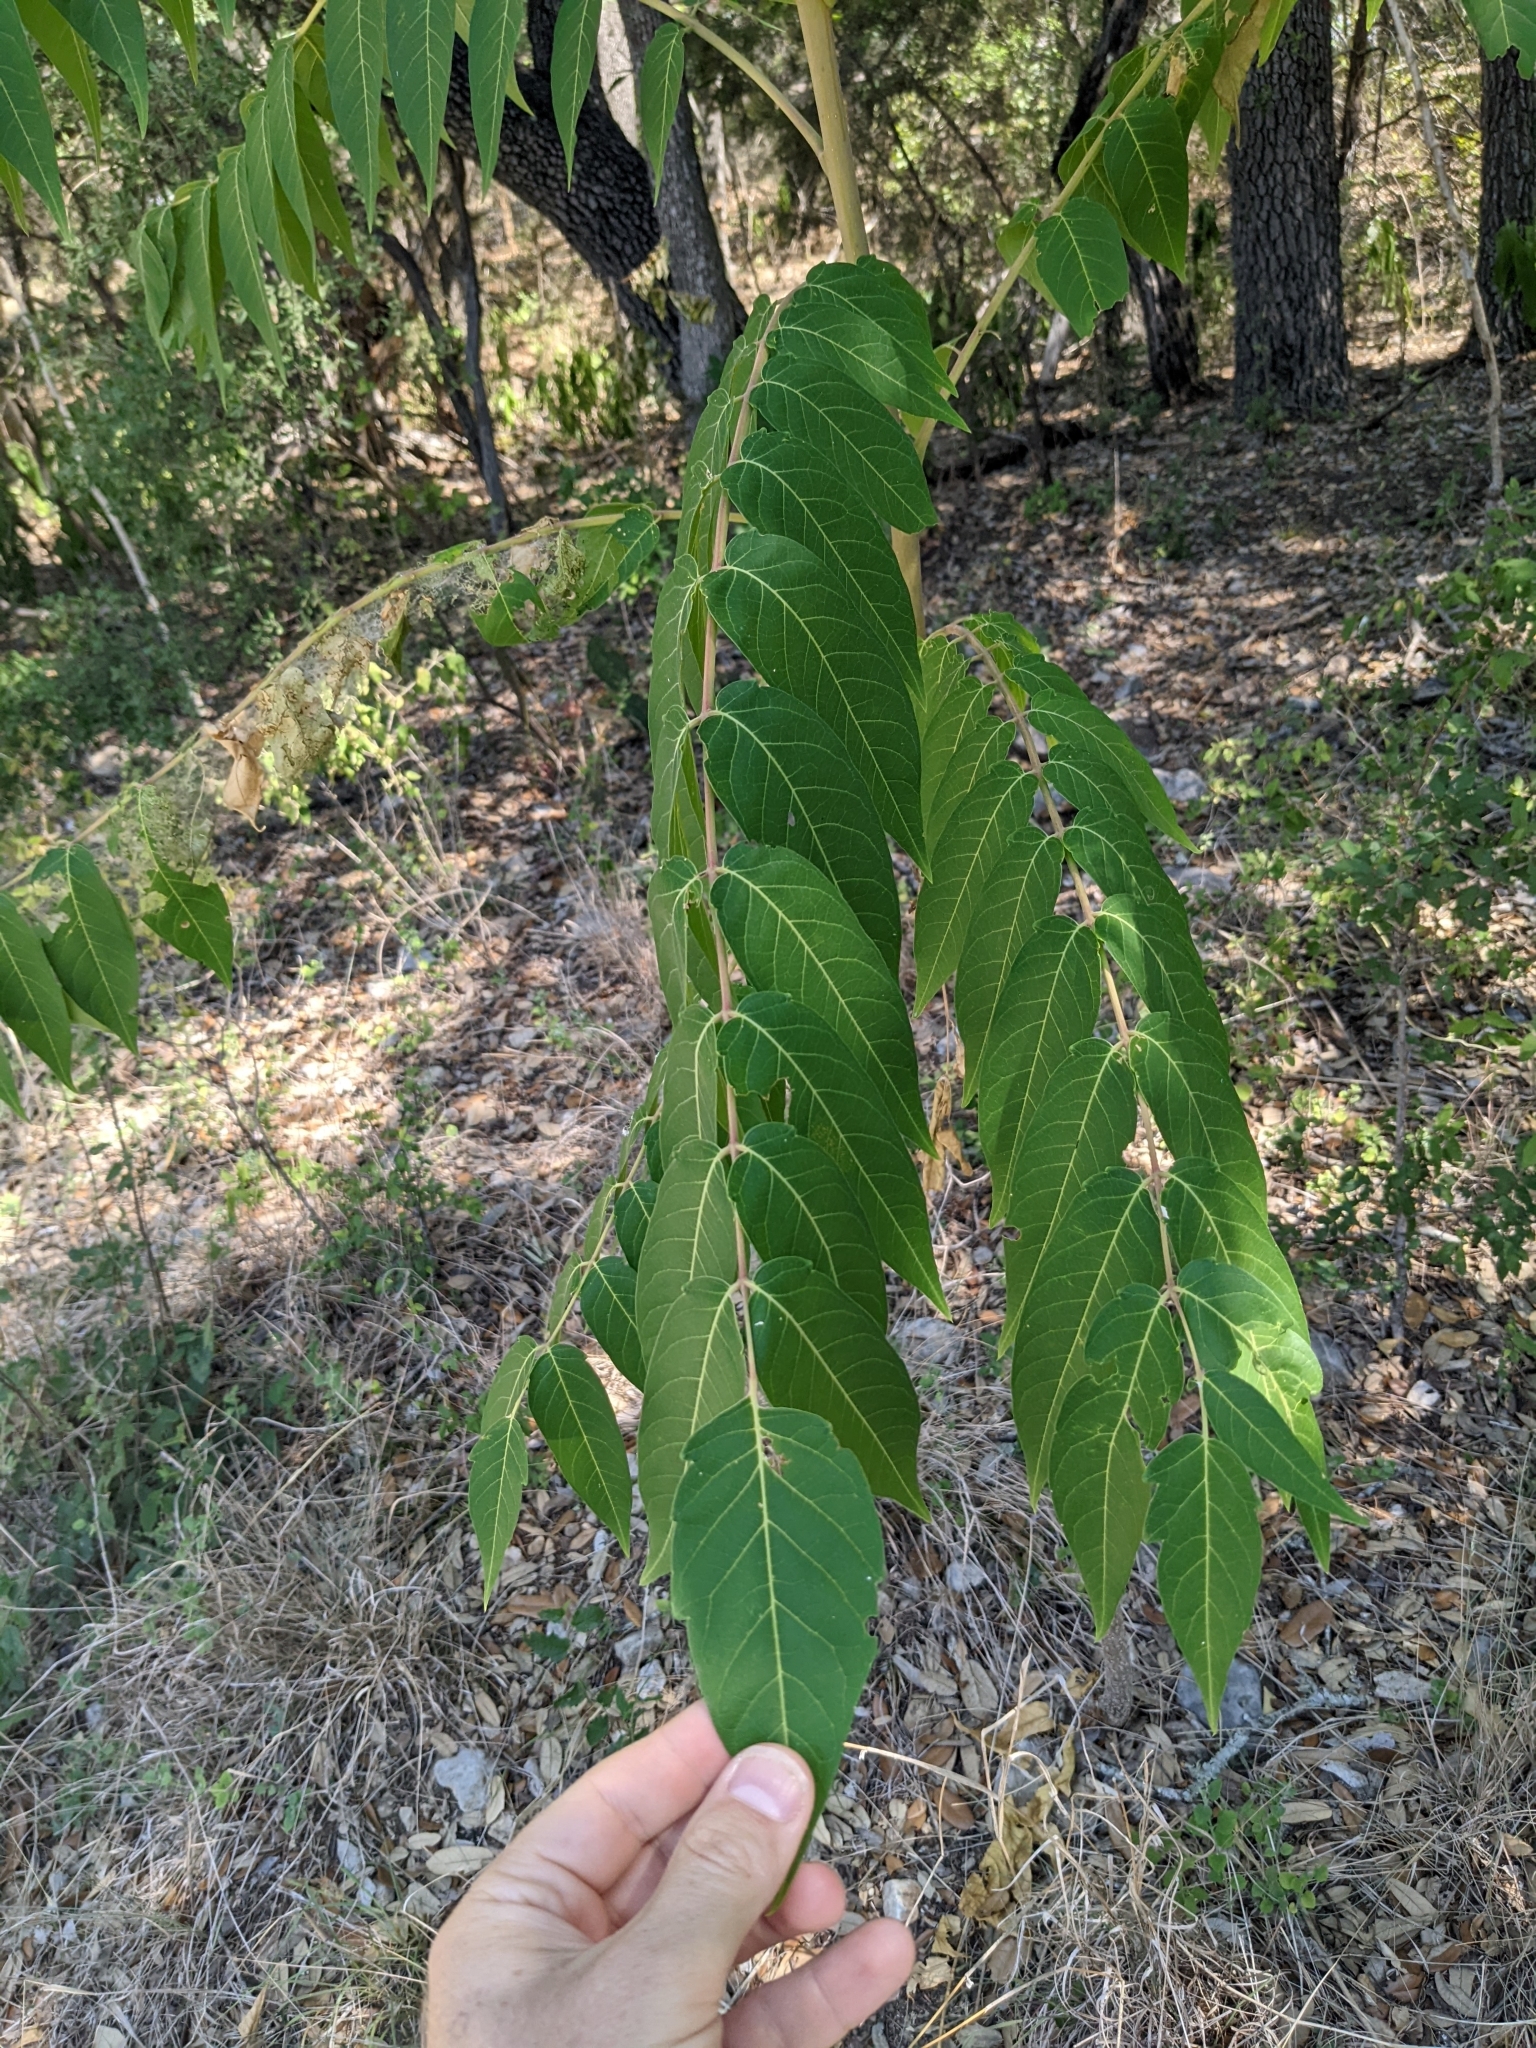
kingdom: Plantae
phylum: Tracheophyta
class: Magnoliopsida
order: Sapindales
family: Simaroubaceae
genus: Ailanthus
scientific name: Ailanthus altissima
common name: Tree-of-heaven
